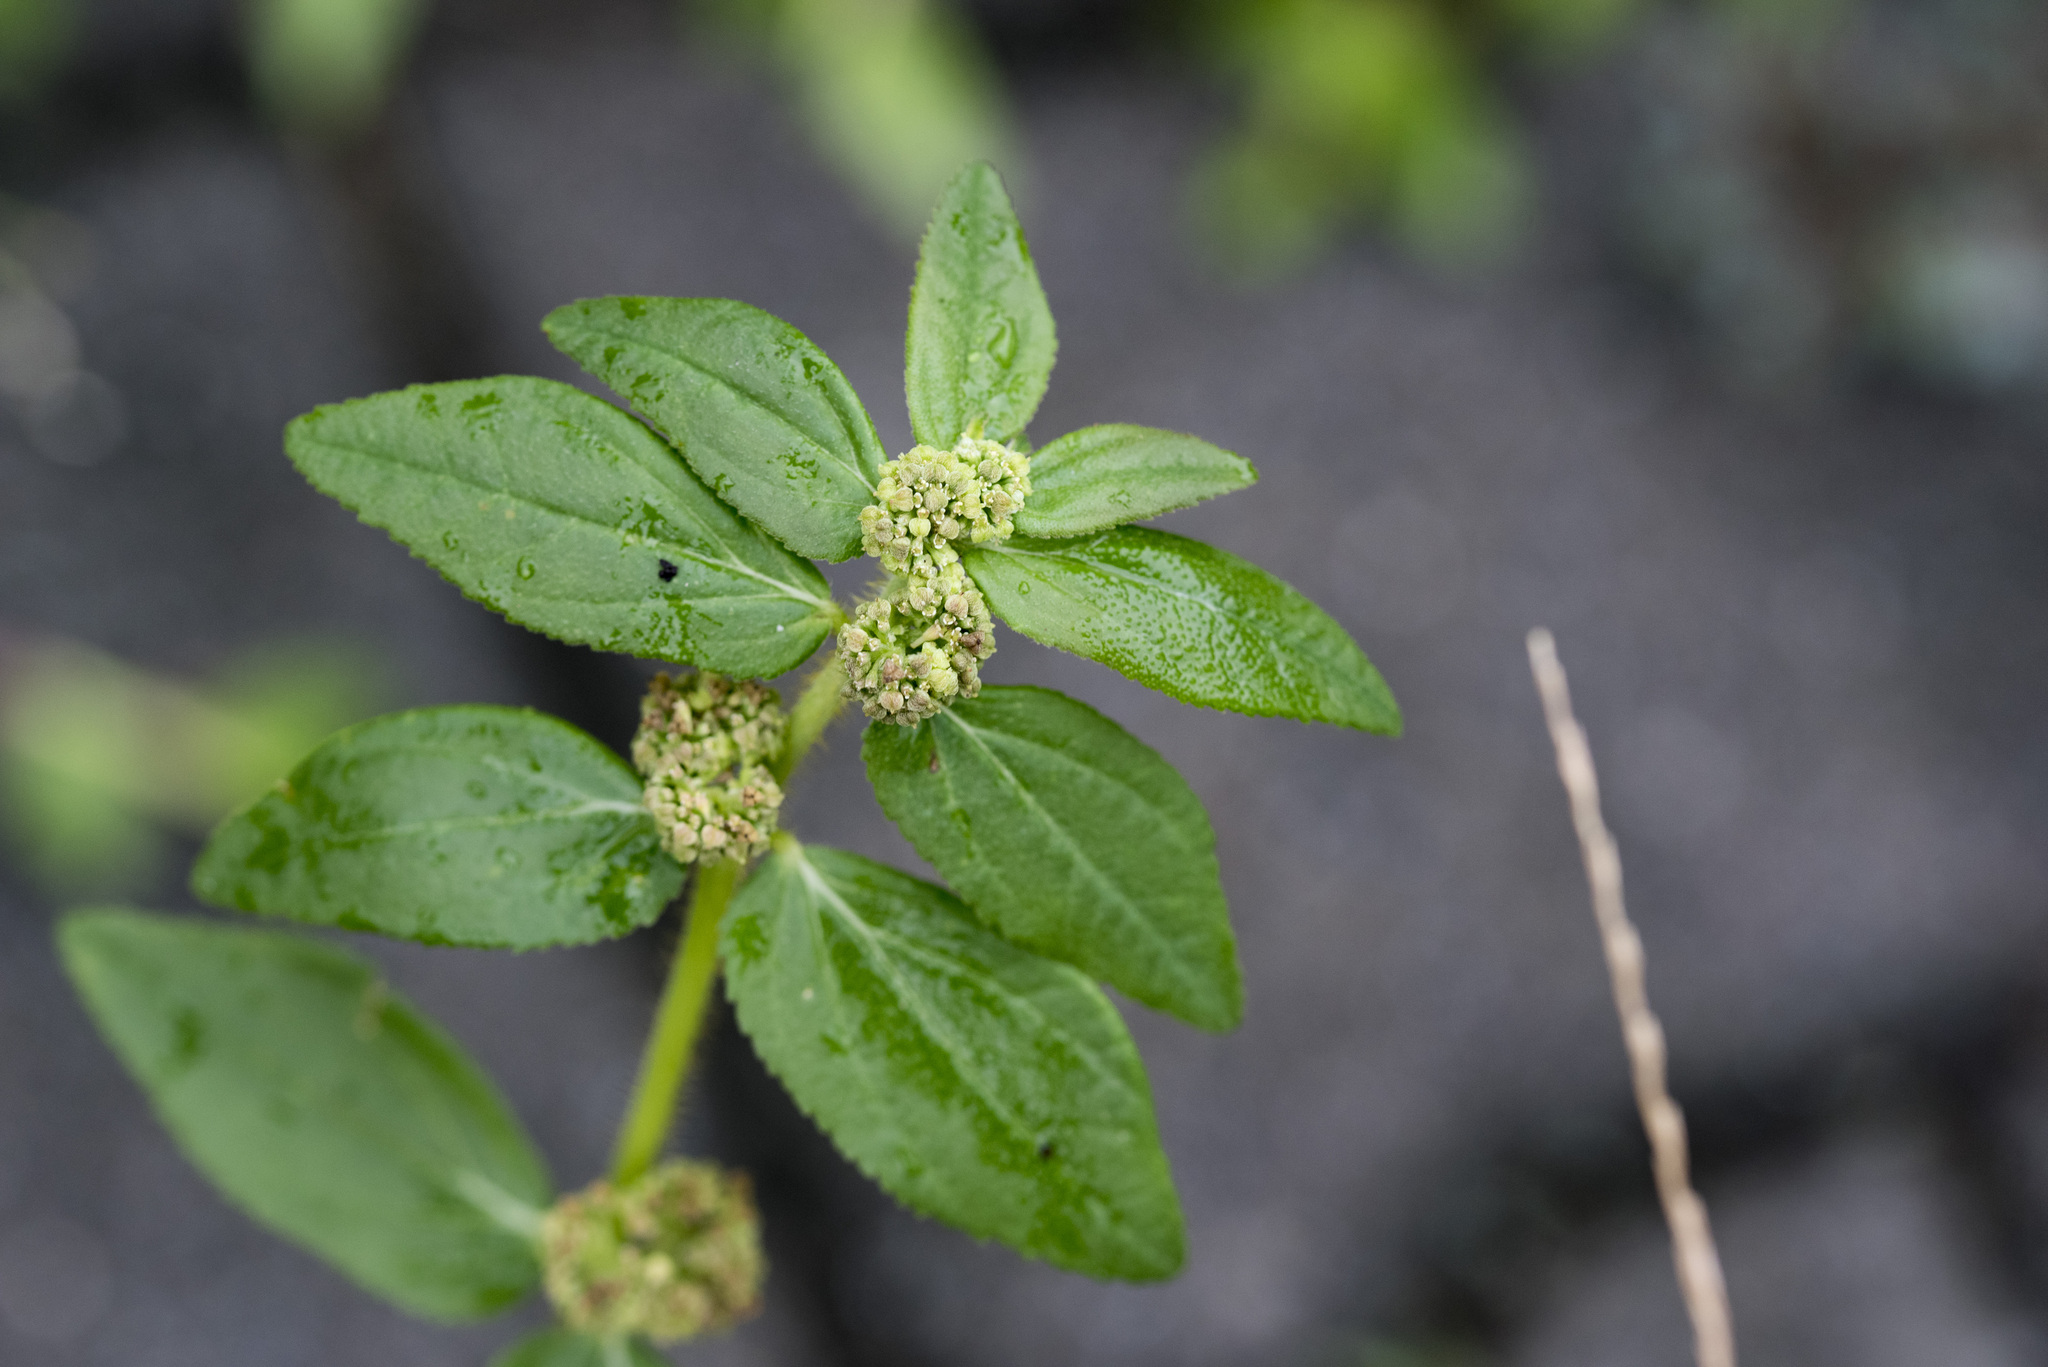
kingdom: Plantae
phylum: Tracheophyta
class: Magnoliopsida
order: Malpighiales
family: Euphorbiaceae
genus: Euphorbia
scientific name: Euphorbia hirta
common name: Pillpod sandmat
